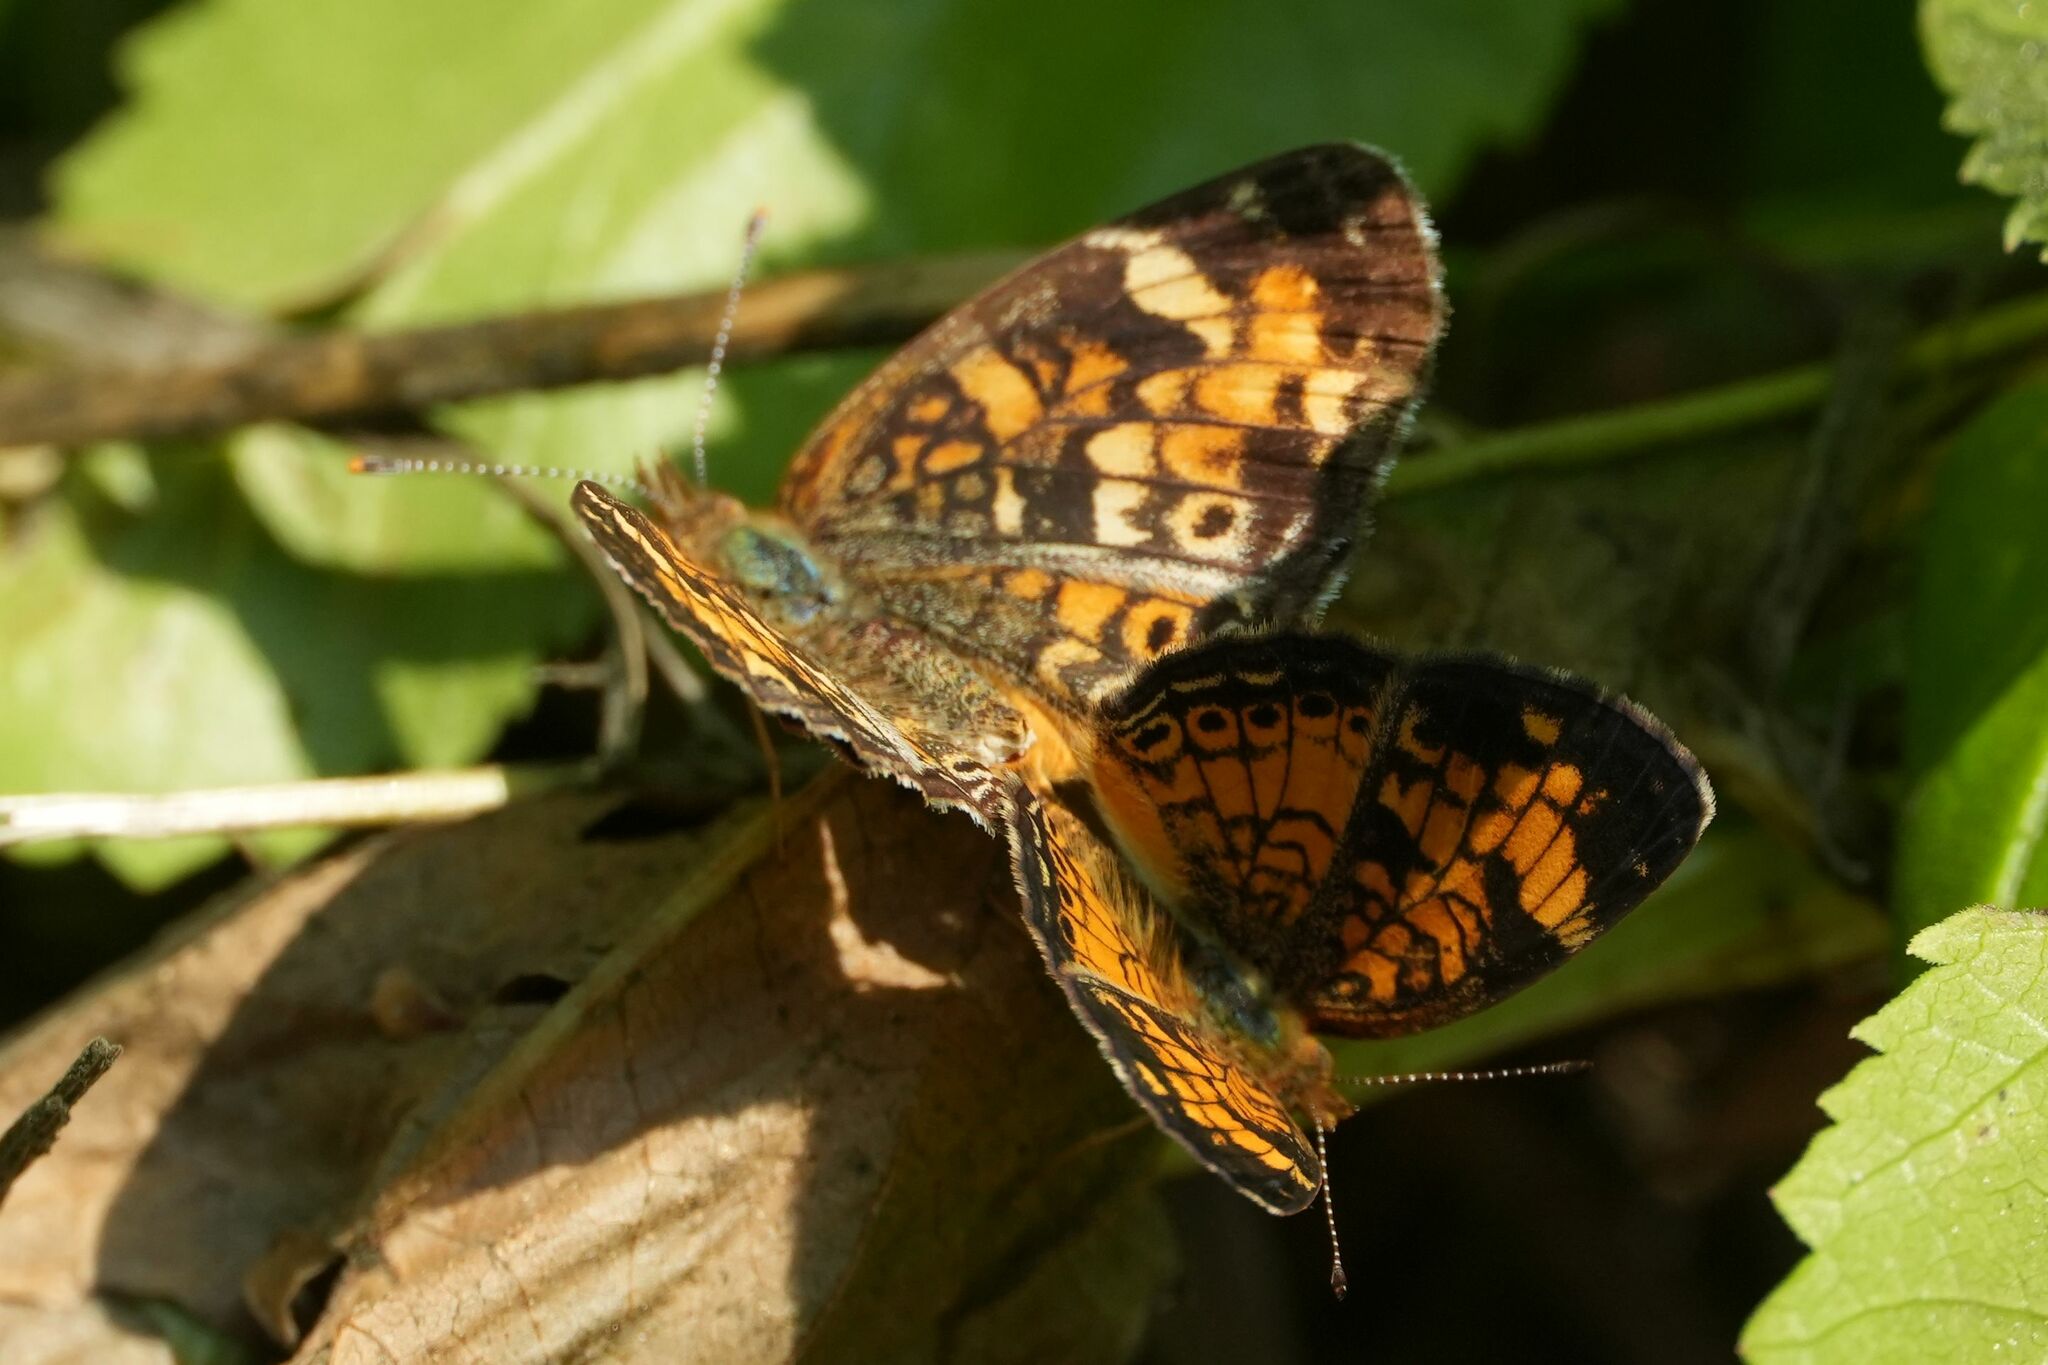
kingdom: Animalia
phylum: Arthropoda
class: Insecta
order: Lepidoptera
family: Nymphalidae
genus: Phyciodes
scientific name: Phyciodes tharos
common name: Pearl crescent
